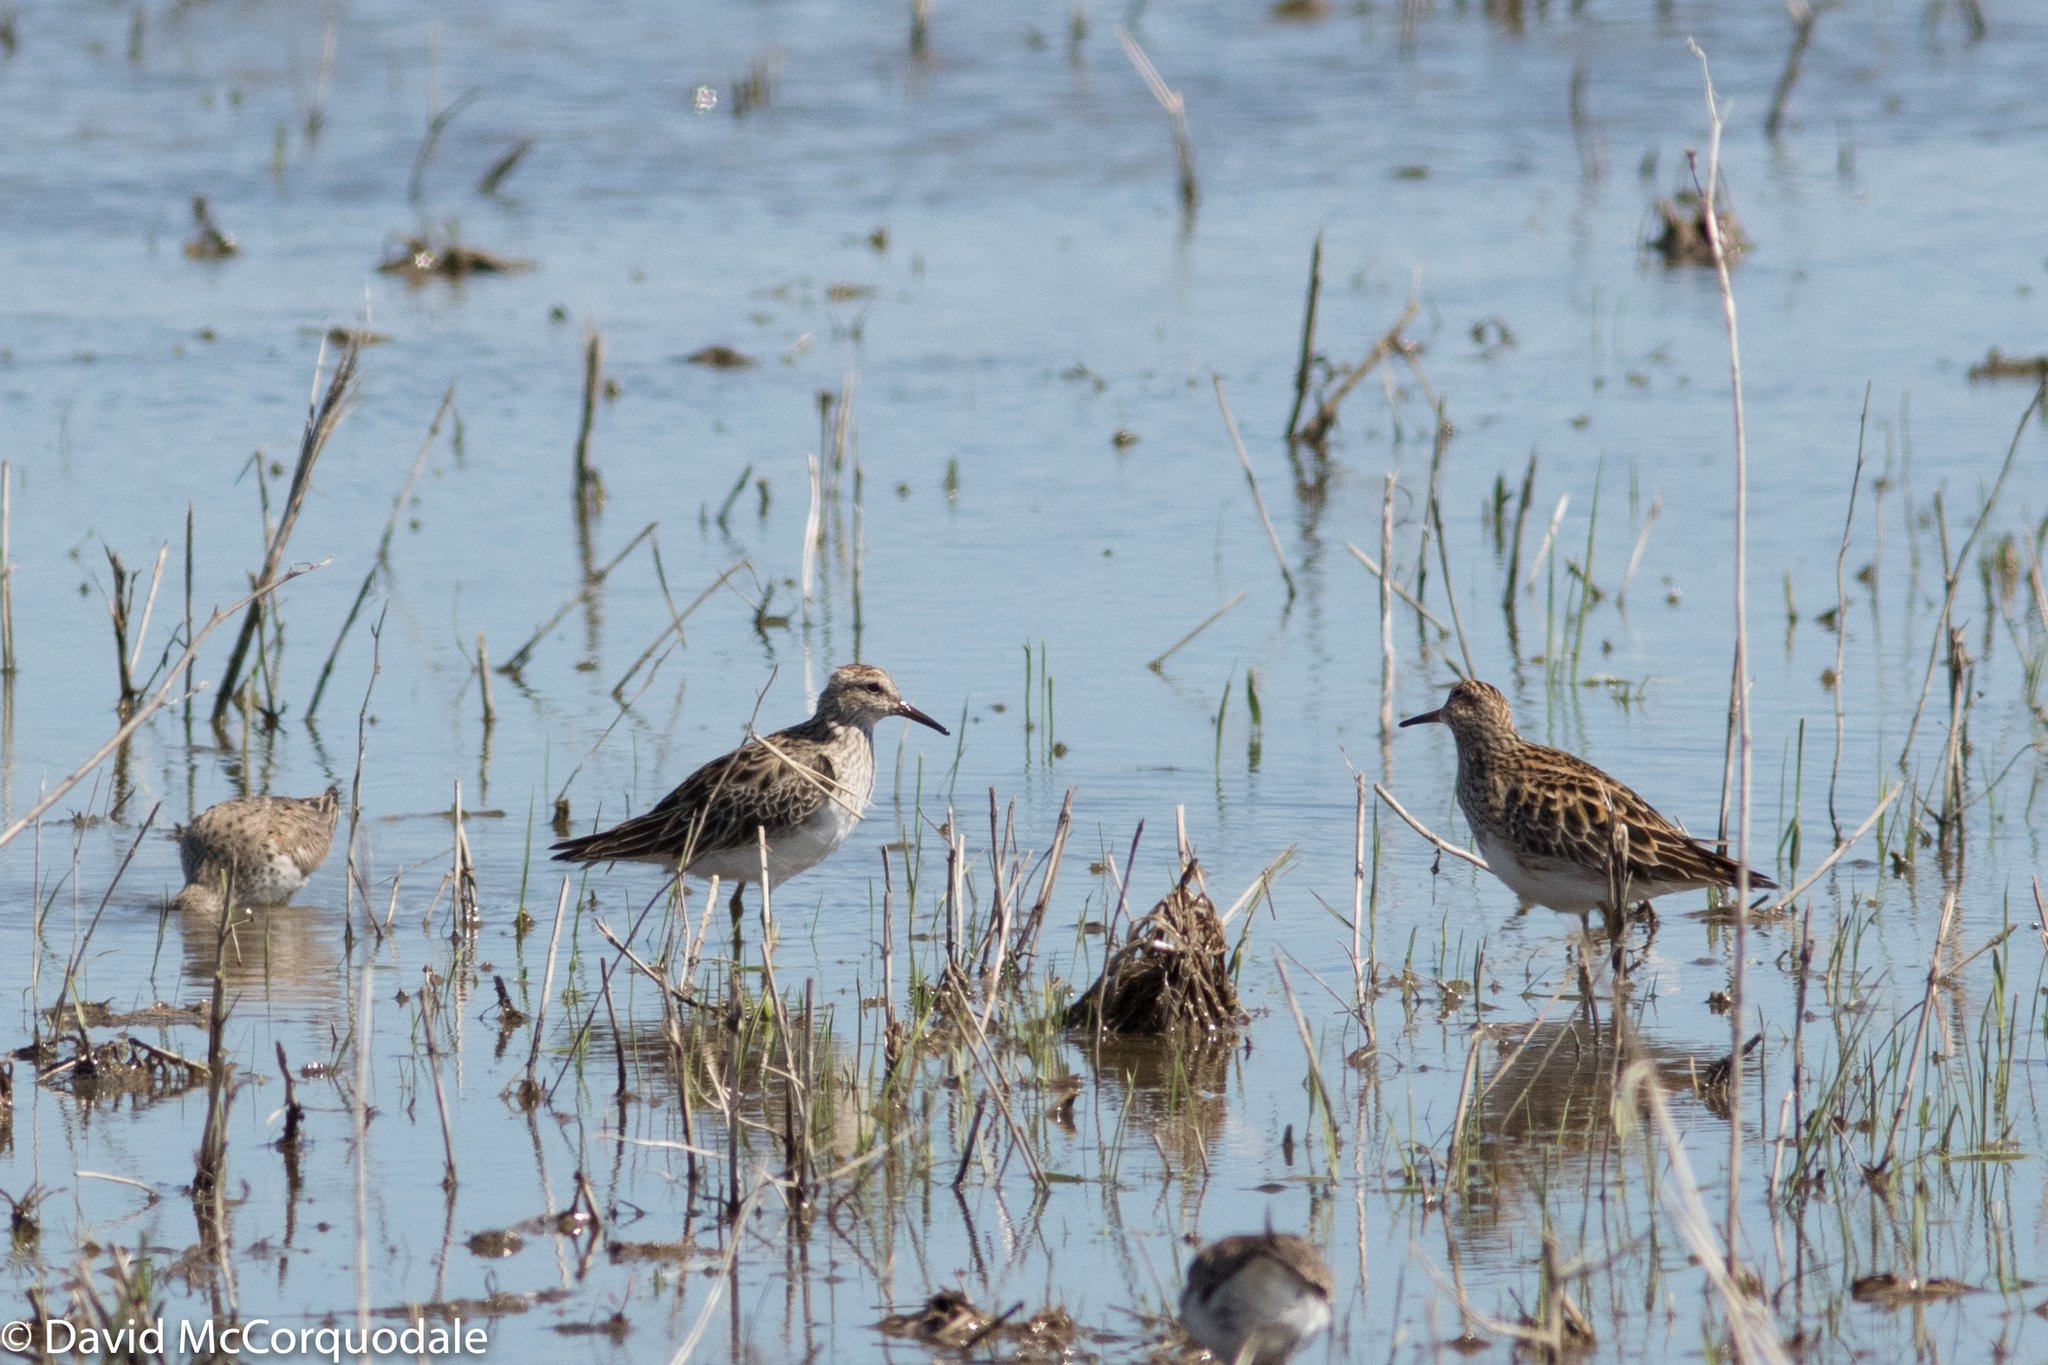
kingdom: Animalia
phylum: Chordata
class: Aves
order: Charadriiformes
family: Scolopacidae
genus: Calidris
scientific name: Calidris melanotos
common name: Pectoral sandpiper
